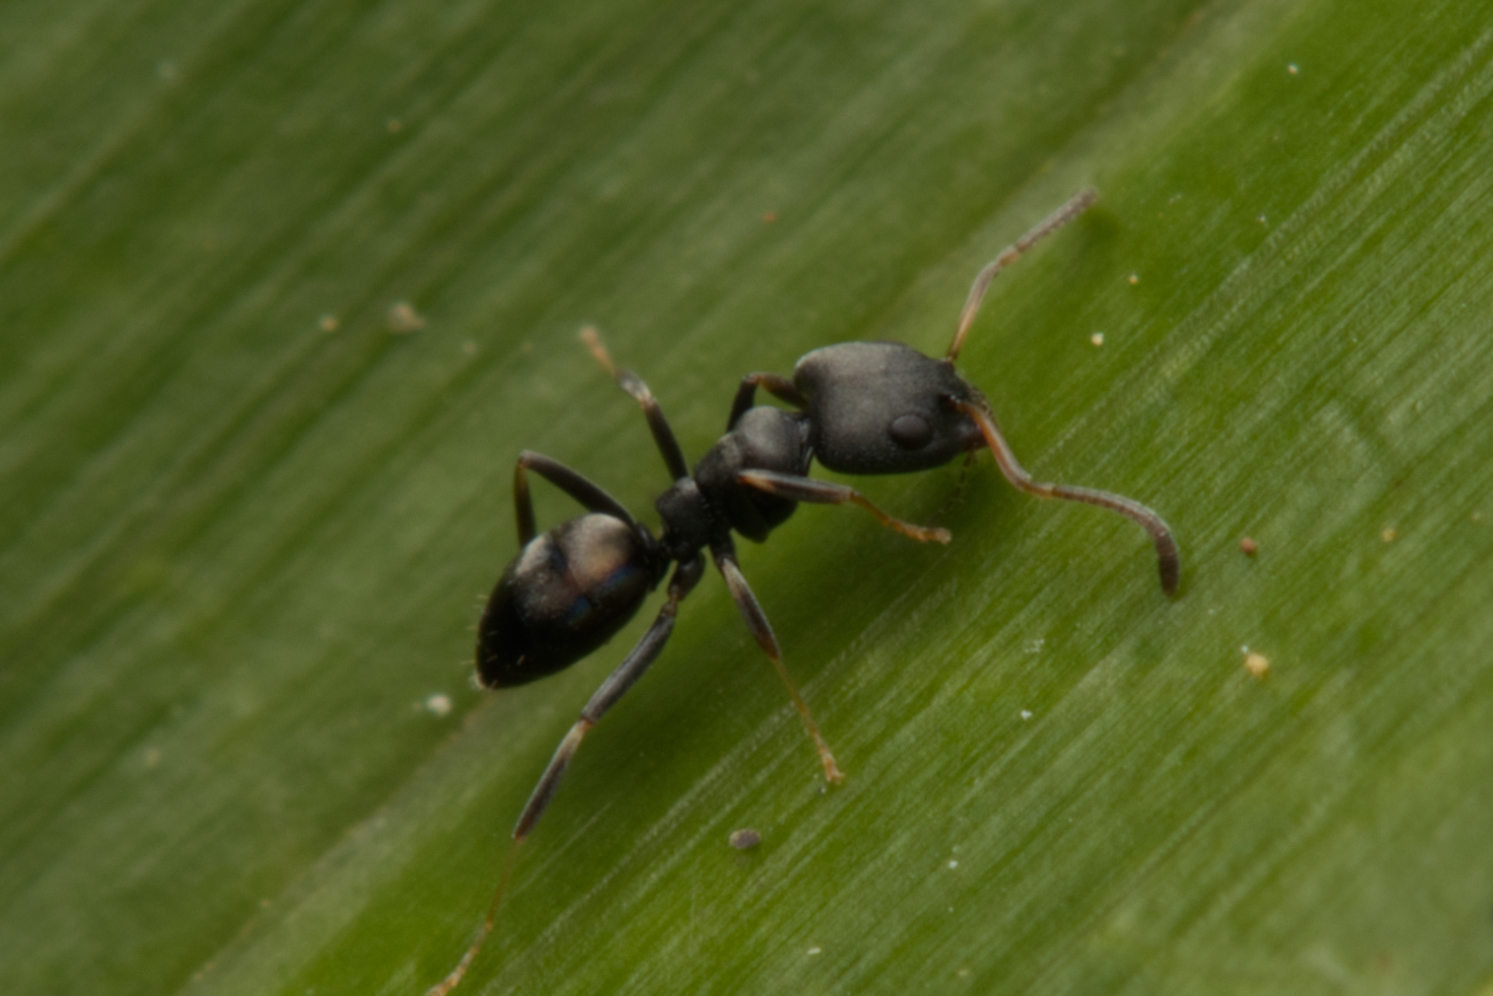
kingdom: Animalia
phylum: Arthropoda
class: Insecta
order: Hymenoptera
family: Formicidae
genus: Ochetellus
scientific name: Ochetellus punctatissimus
